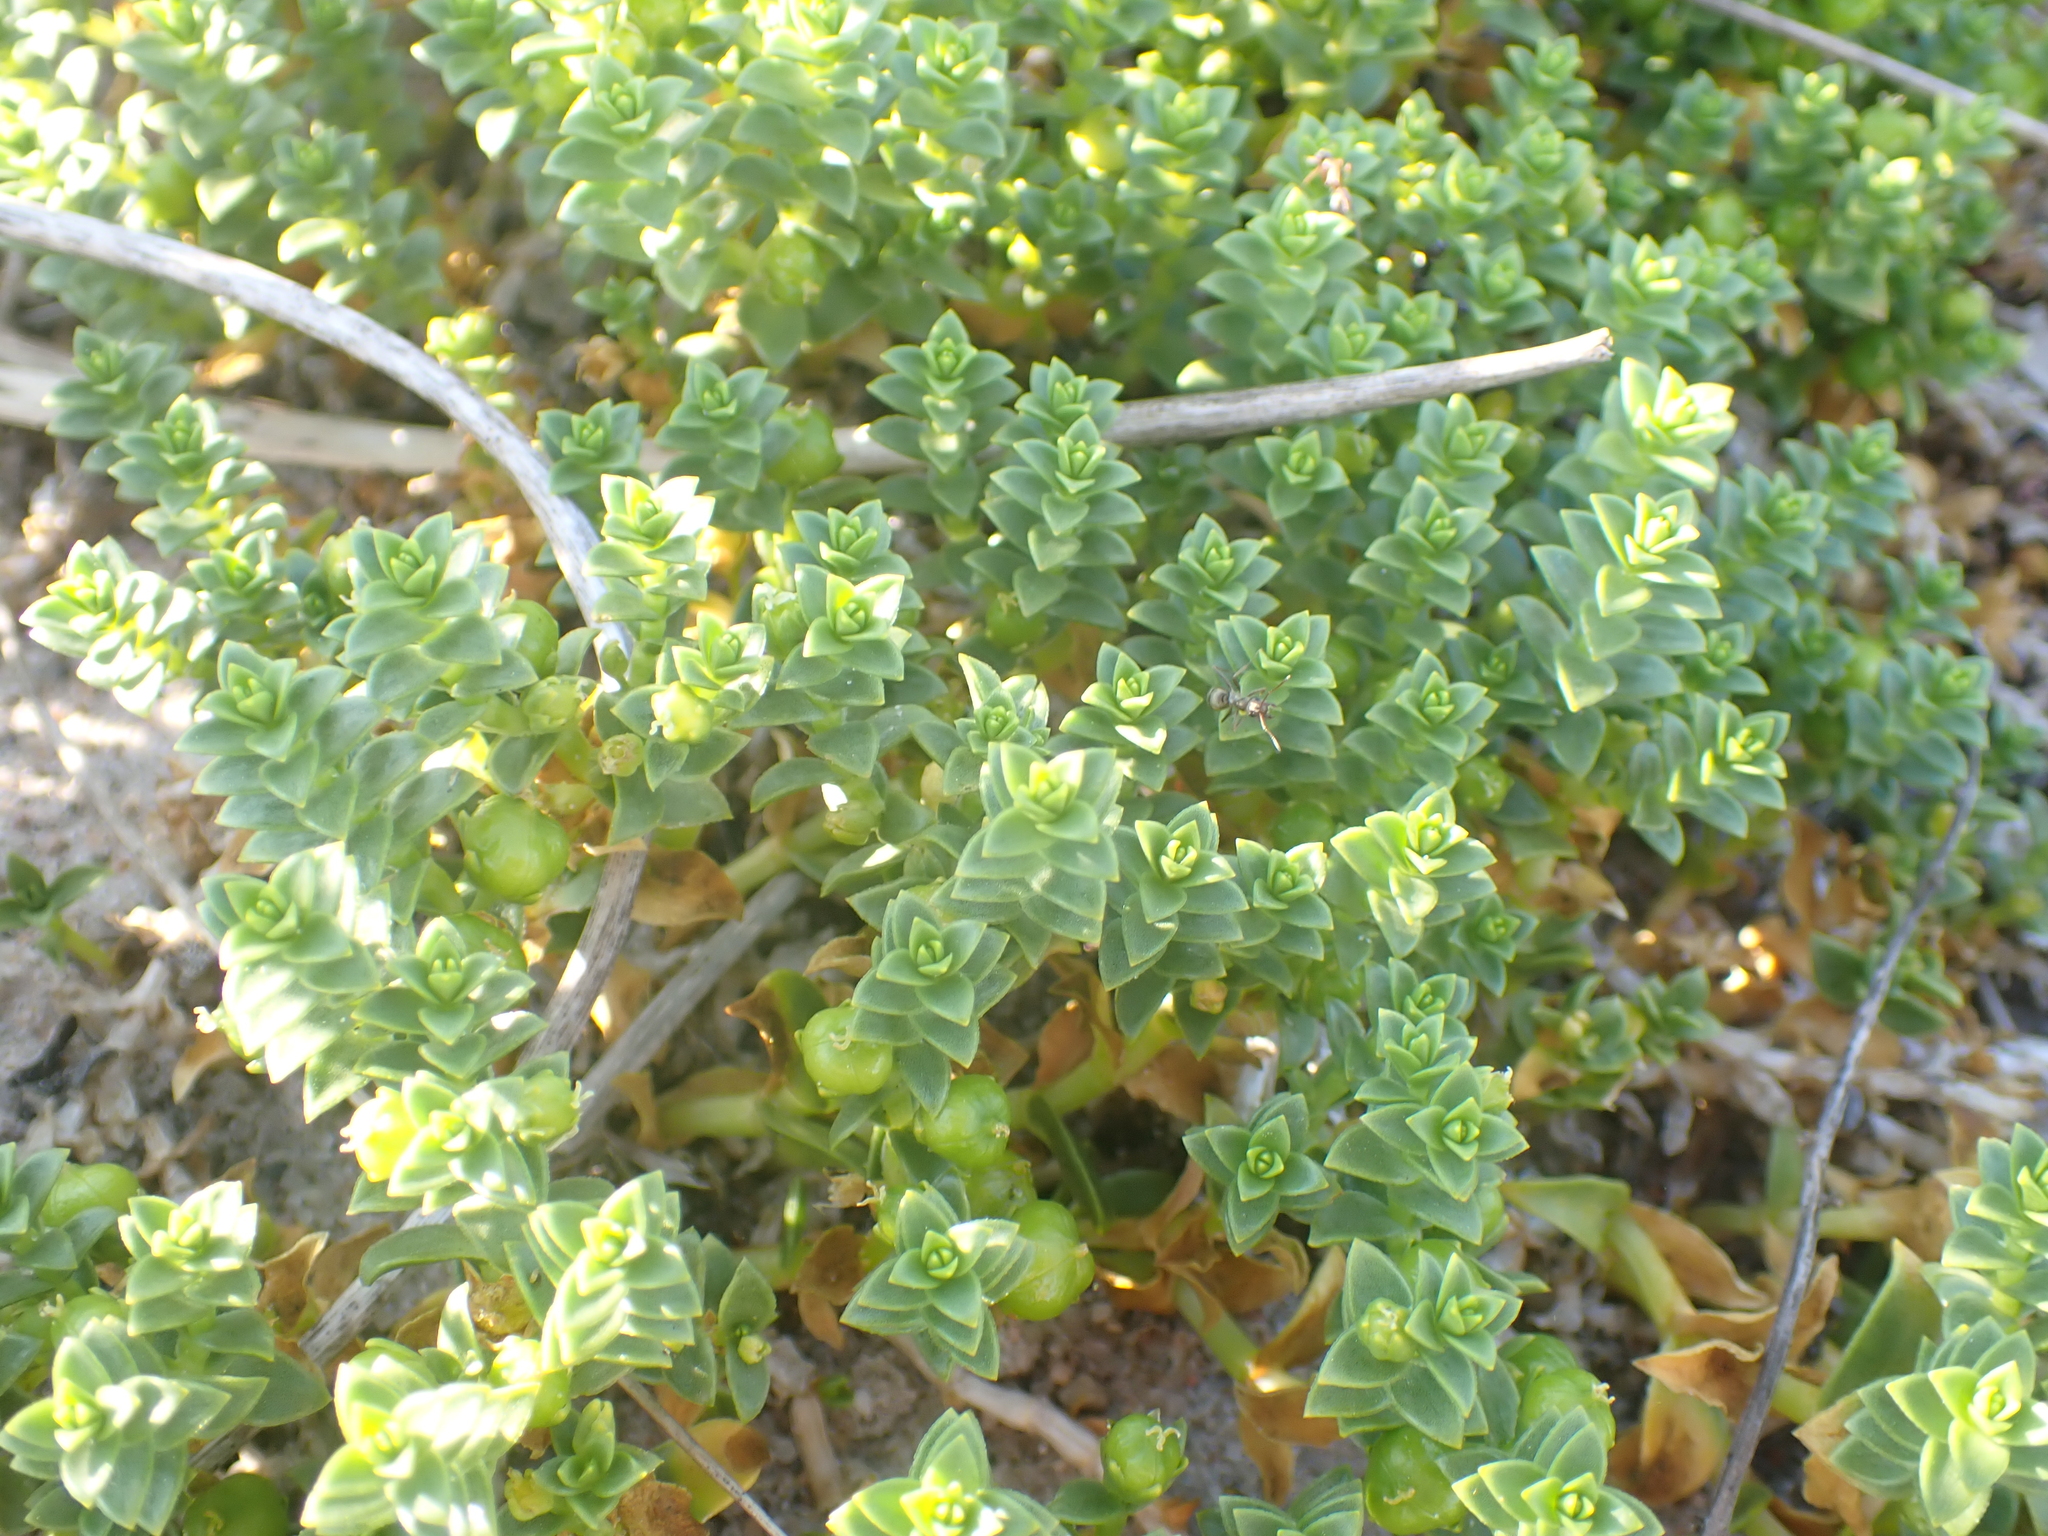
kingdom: Plantae
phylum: Tracheophyta
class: Magnoliopsida
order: Caryophyllales
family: Caryophyllaceae
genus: Honckenya
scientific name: Honckenya peploides
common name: Sea sandwort
